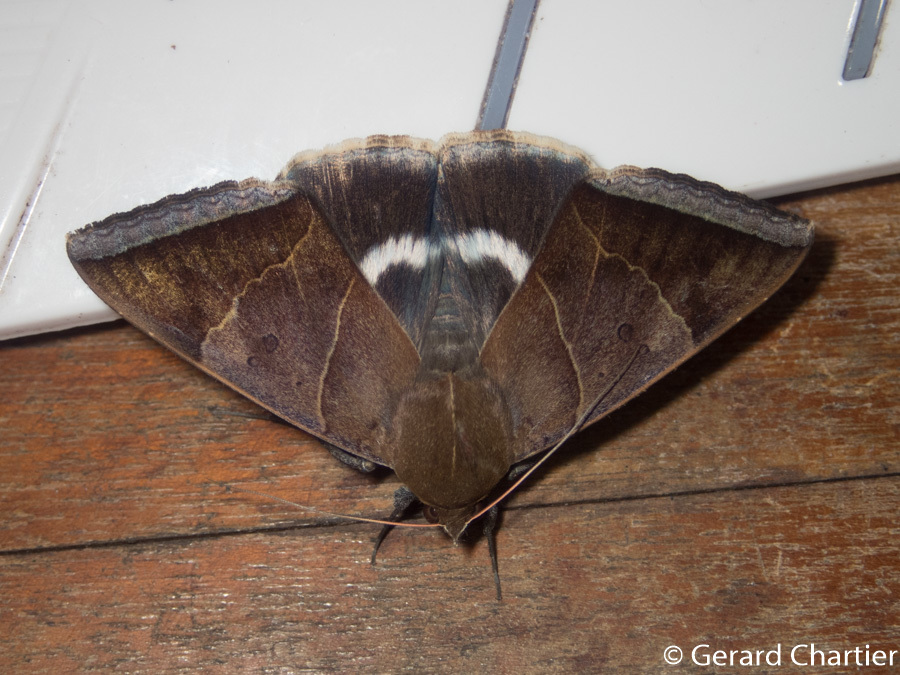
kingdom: Animalia
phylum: Arthropoda
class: Insecta
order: Lepidoptera
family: Erebidae
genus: Artena
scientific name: Artena dotata
